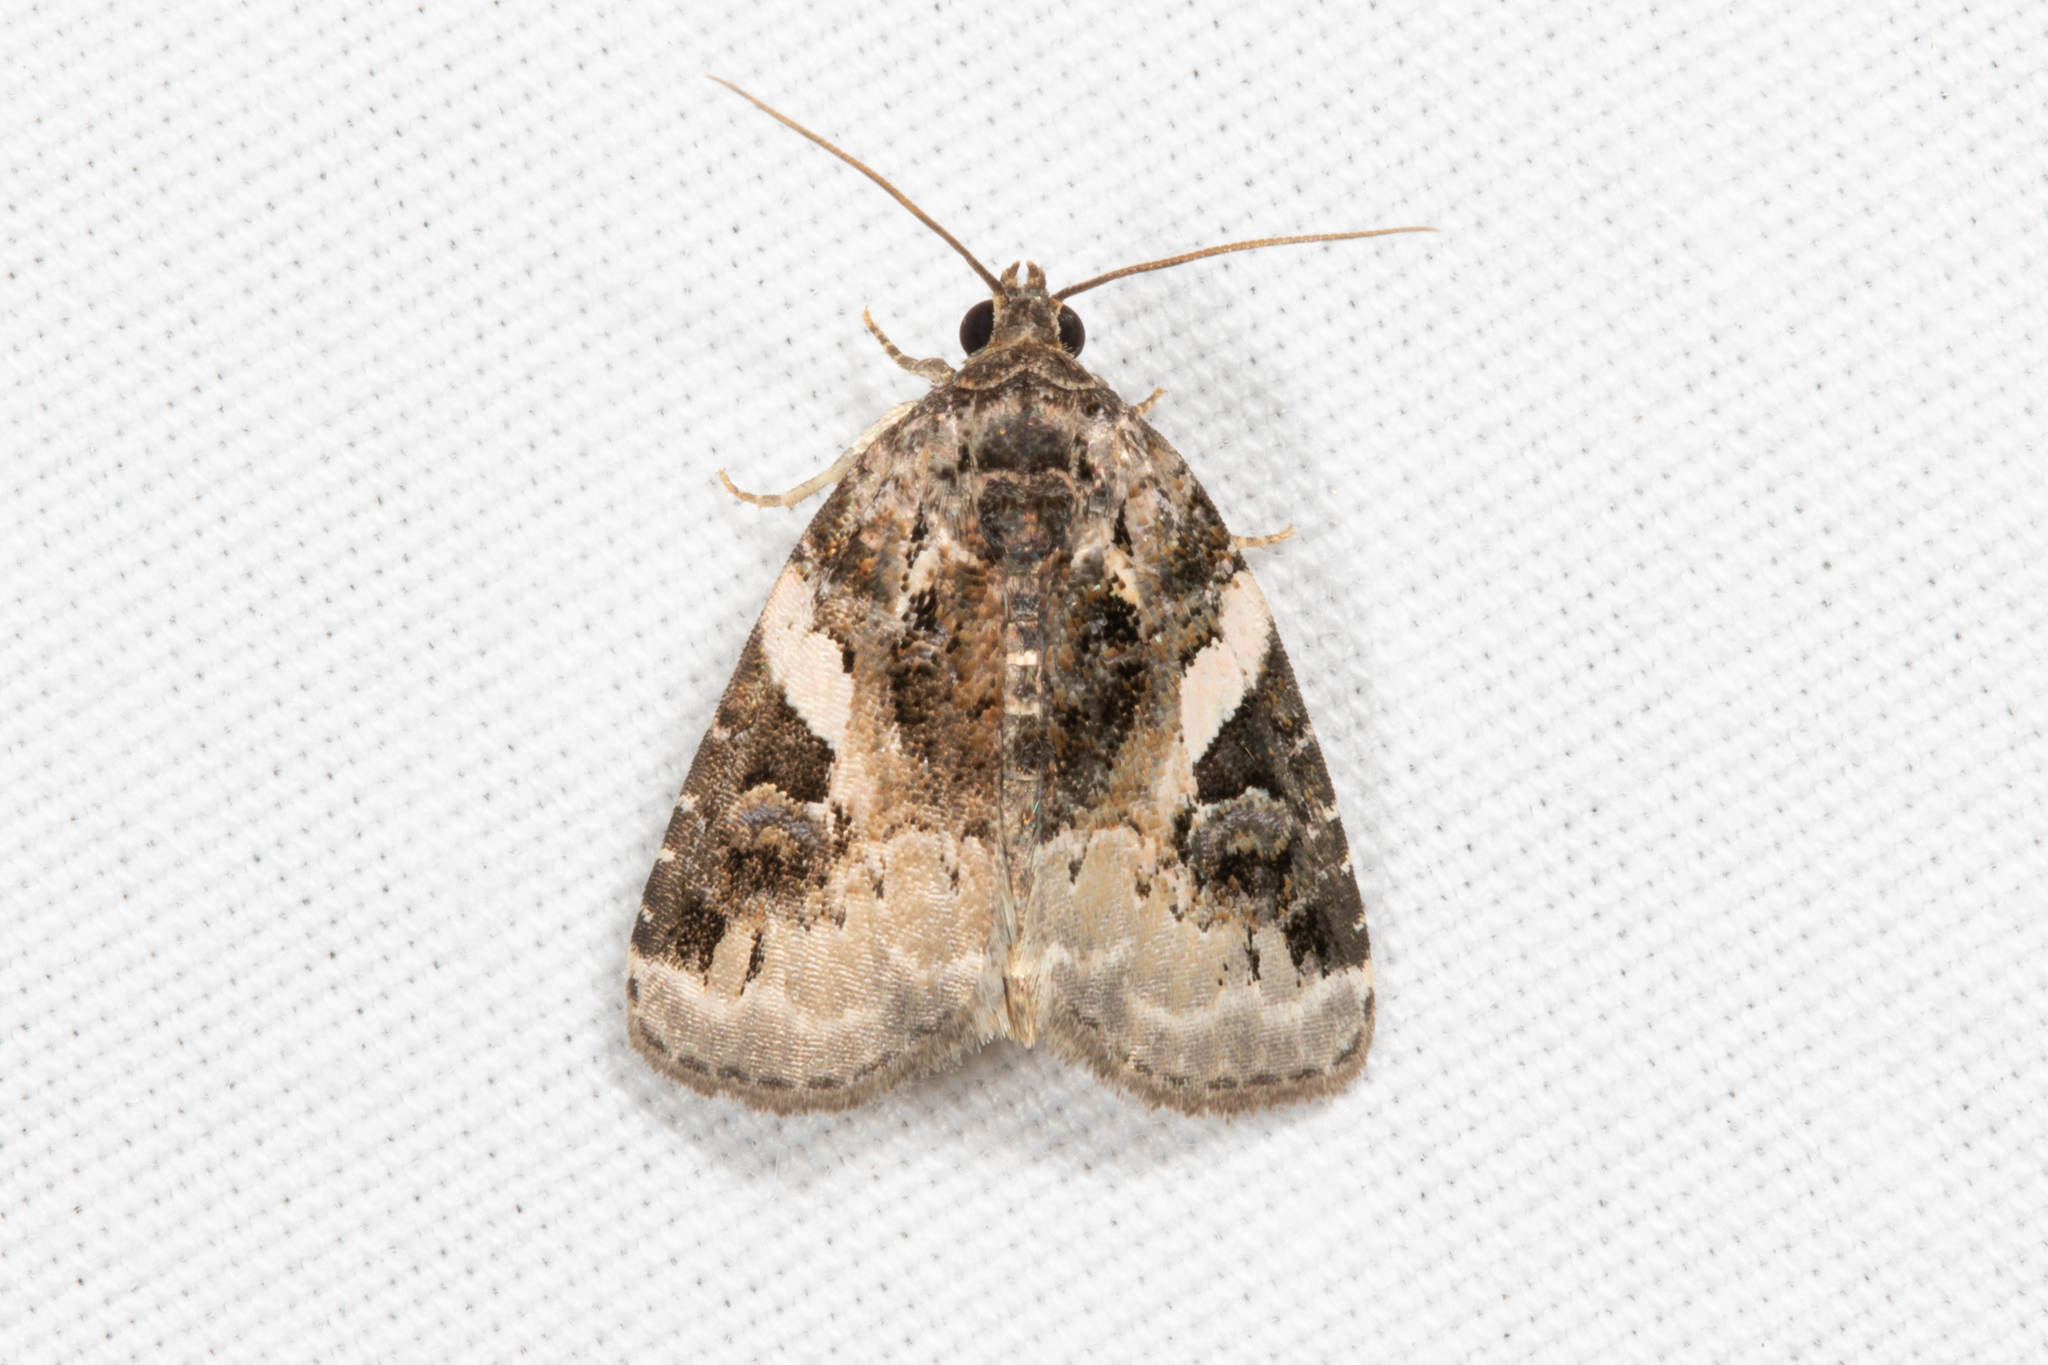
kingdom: Animalia
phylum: Arthropoda
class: Insecta
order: Lepidoptera
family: Noctuidae
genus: Pseudeustrotia
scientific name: Pseudeustrotia carneola
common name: Pink-barred lithacodia moth
